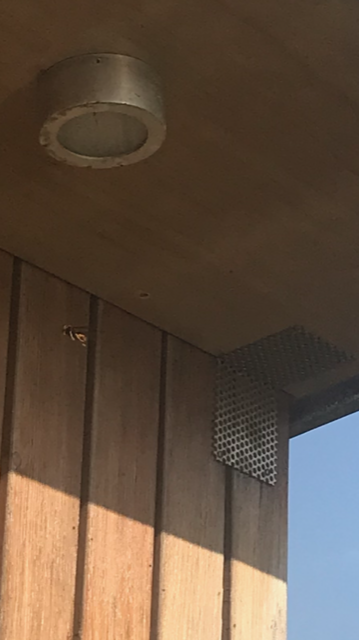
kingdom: Animalia
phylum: Arthropoda
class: Insecta
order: Hymenoptera
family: Vespidae
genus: Vespa
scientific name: Vespa velutina
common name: Asian hornet
